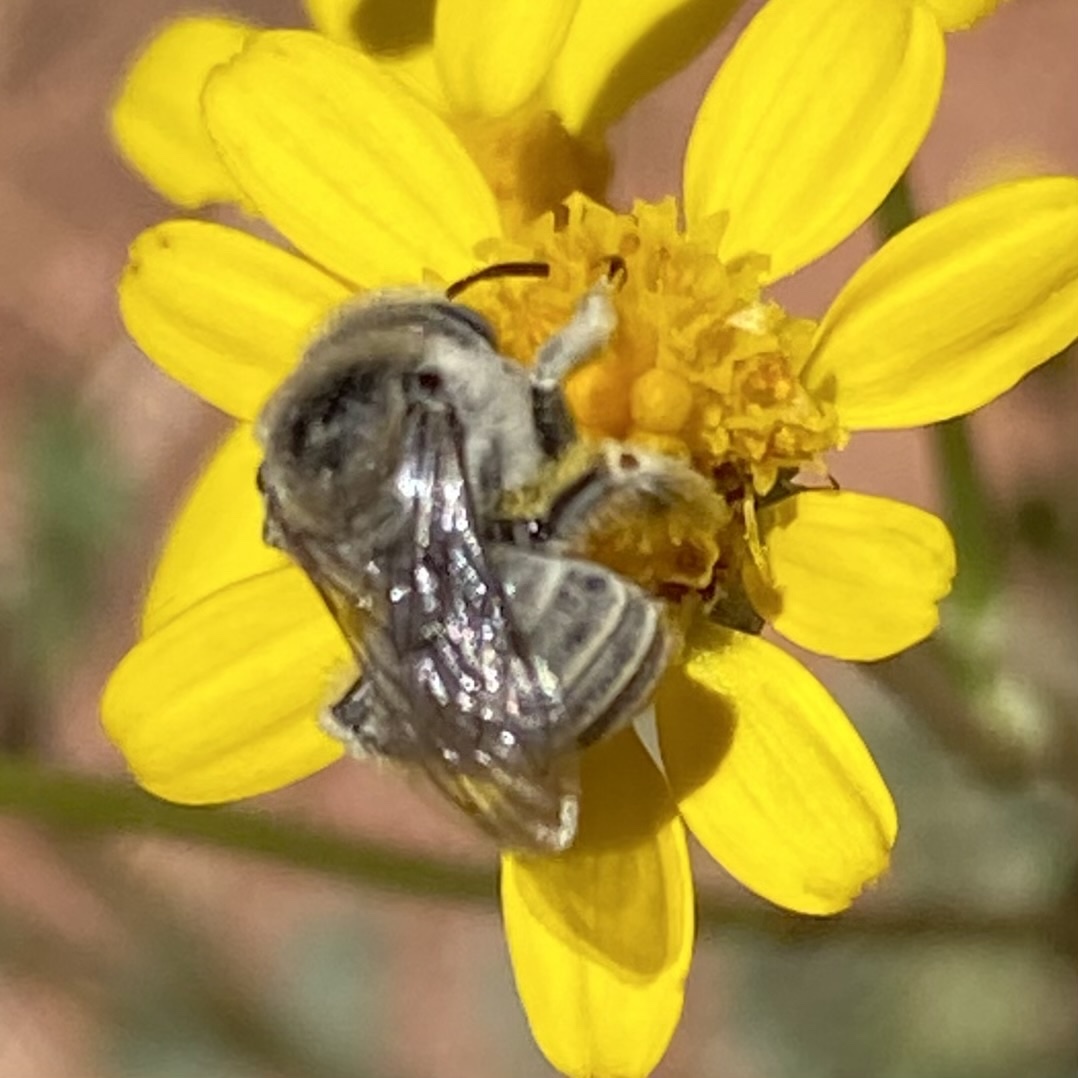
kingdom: Animalia
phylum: Arthropoda
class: Insecta
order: Hymenoptera
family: Apidae
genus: Diadasia
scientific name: Diadasia
